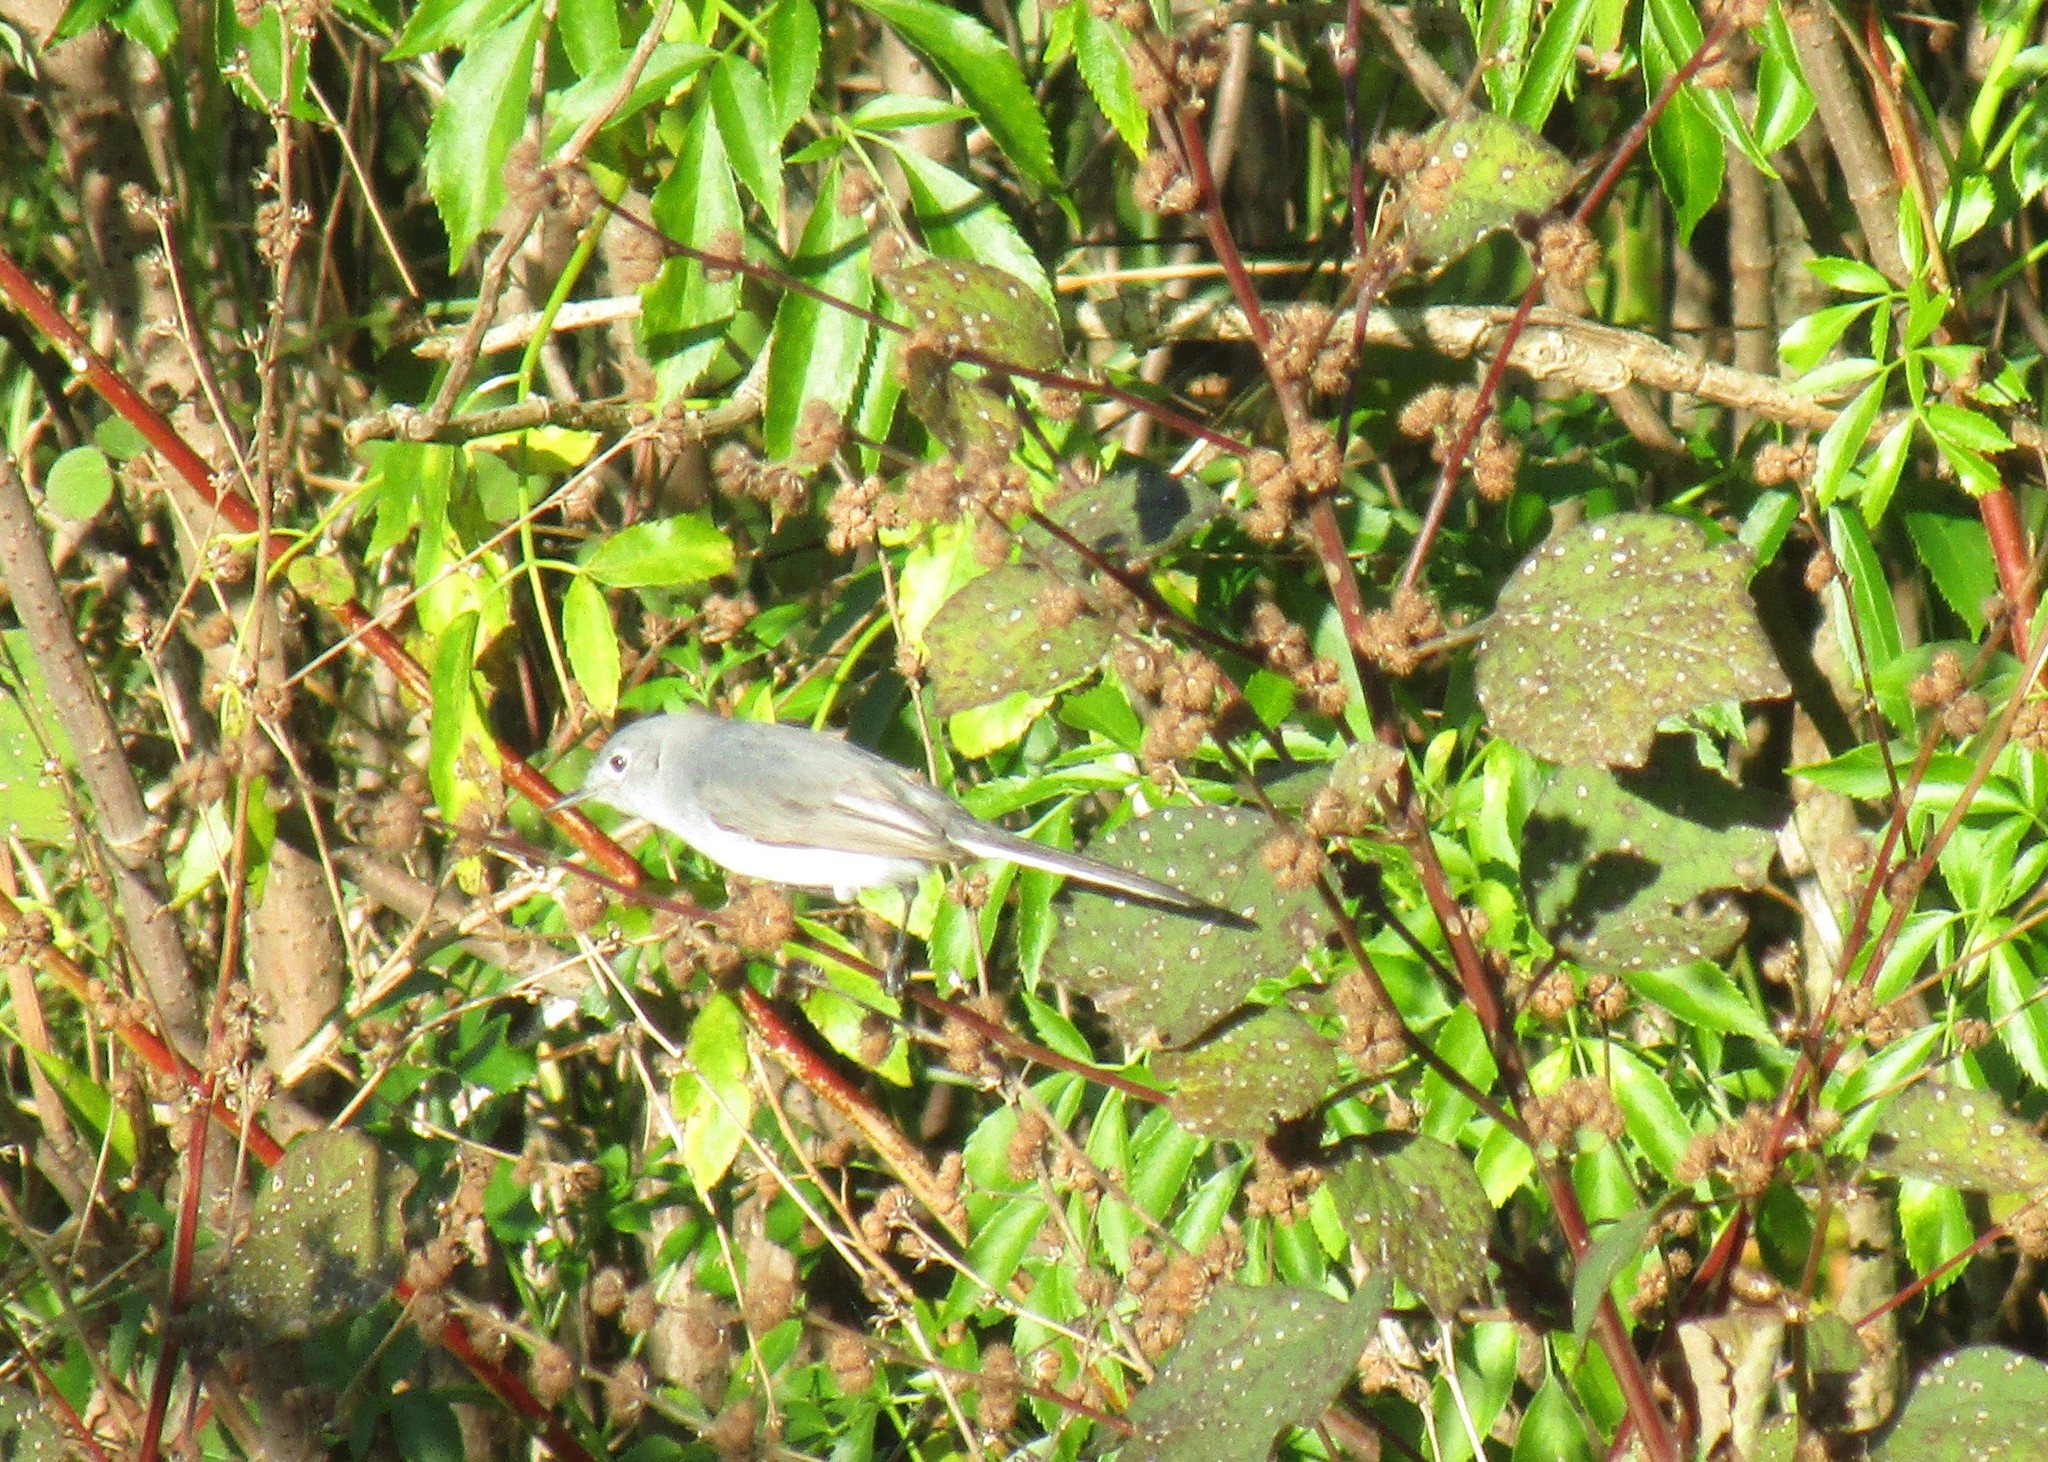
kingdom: Animalia
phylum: Chordata
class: Aves
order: Passeriformes
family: Polioptilidae
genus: Polioptila
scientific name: Polioptila caerulea
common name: Blue-gray gnatcatcher
